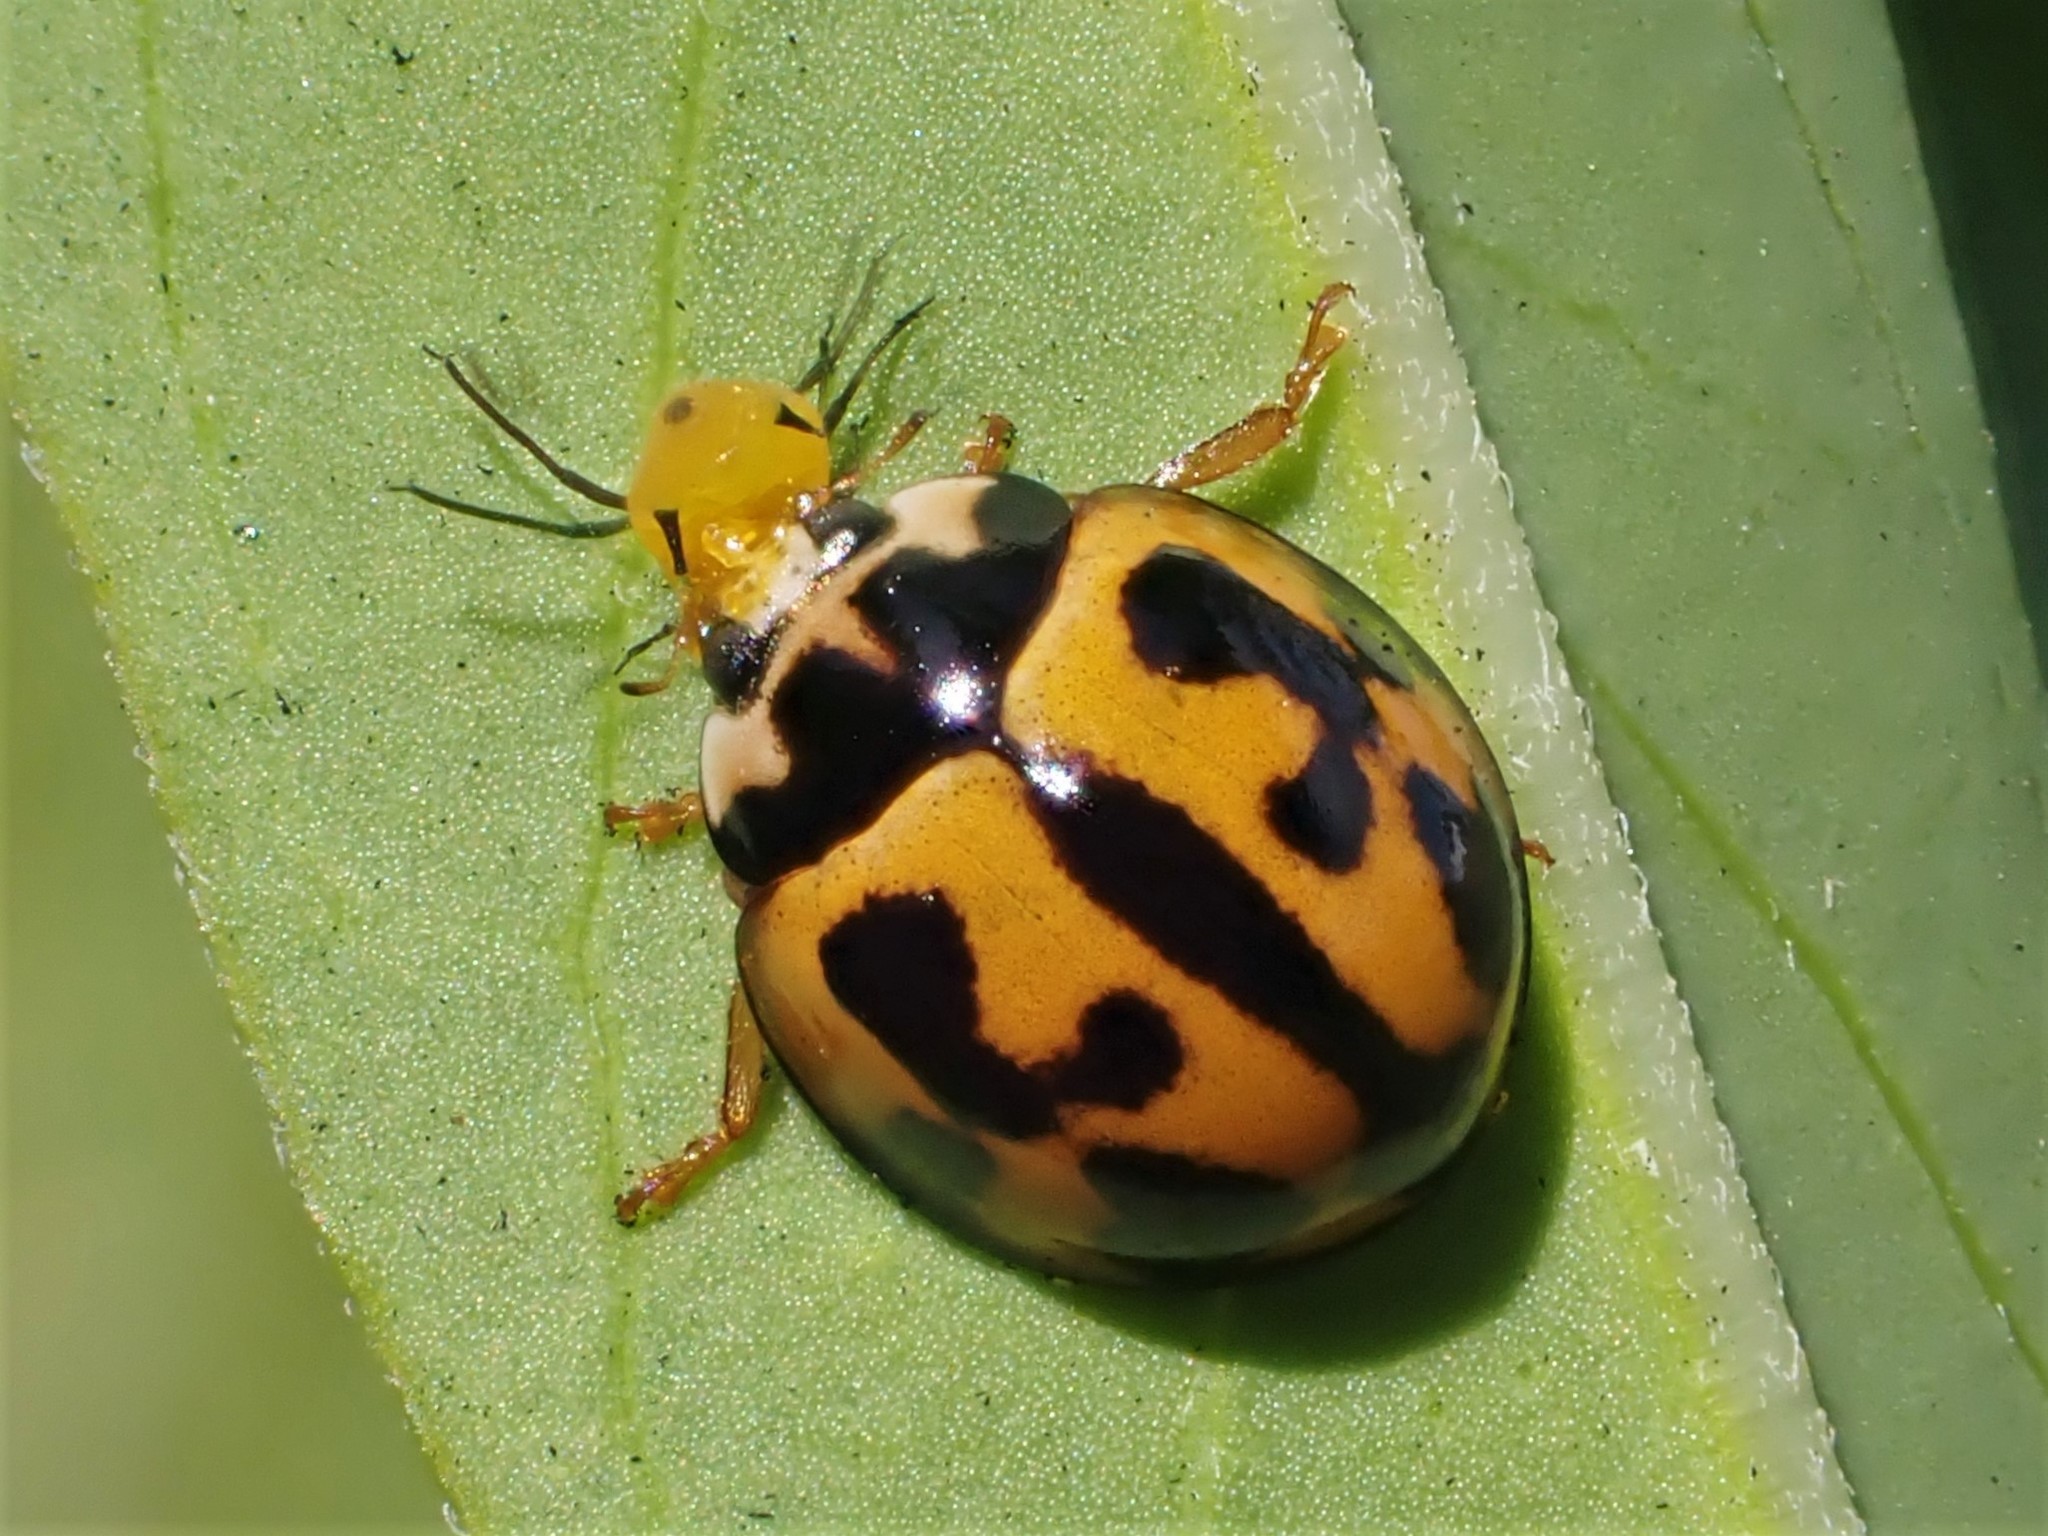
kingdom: Animalia
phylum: Arthropoda
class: Insecta
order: Coleoptera
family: Coccinellidae
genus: Coelophora
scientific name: Coelophora inaequalis
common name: Common australian lady beetle
